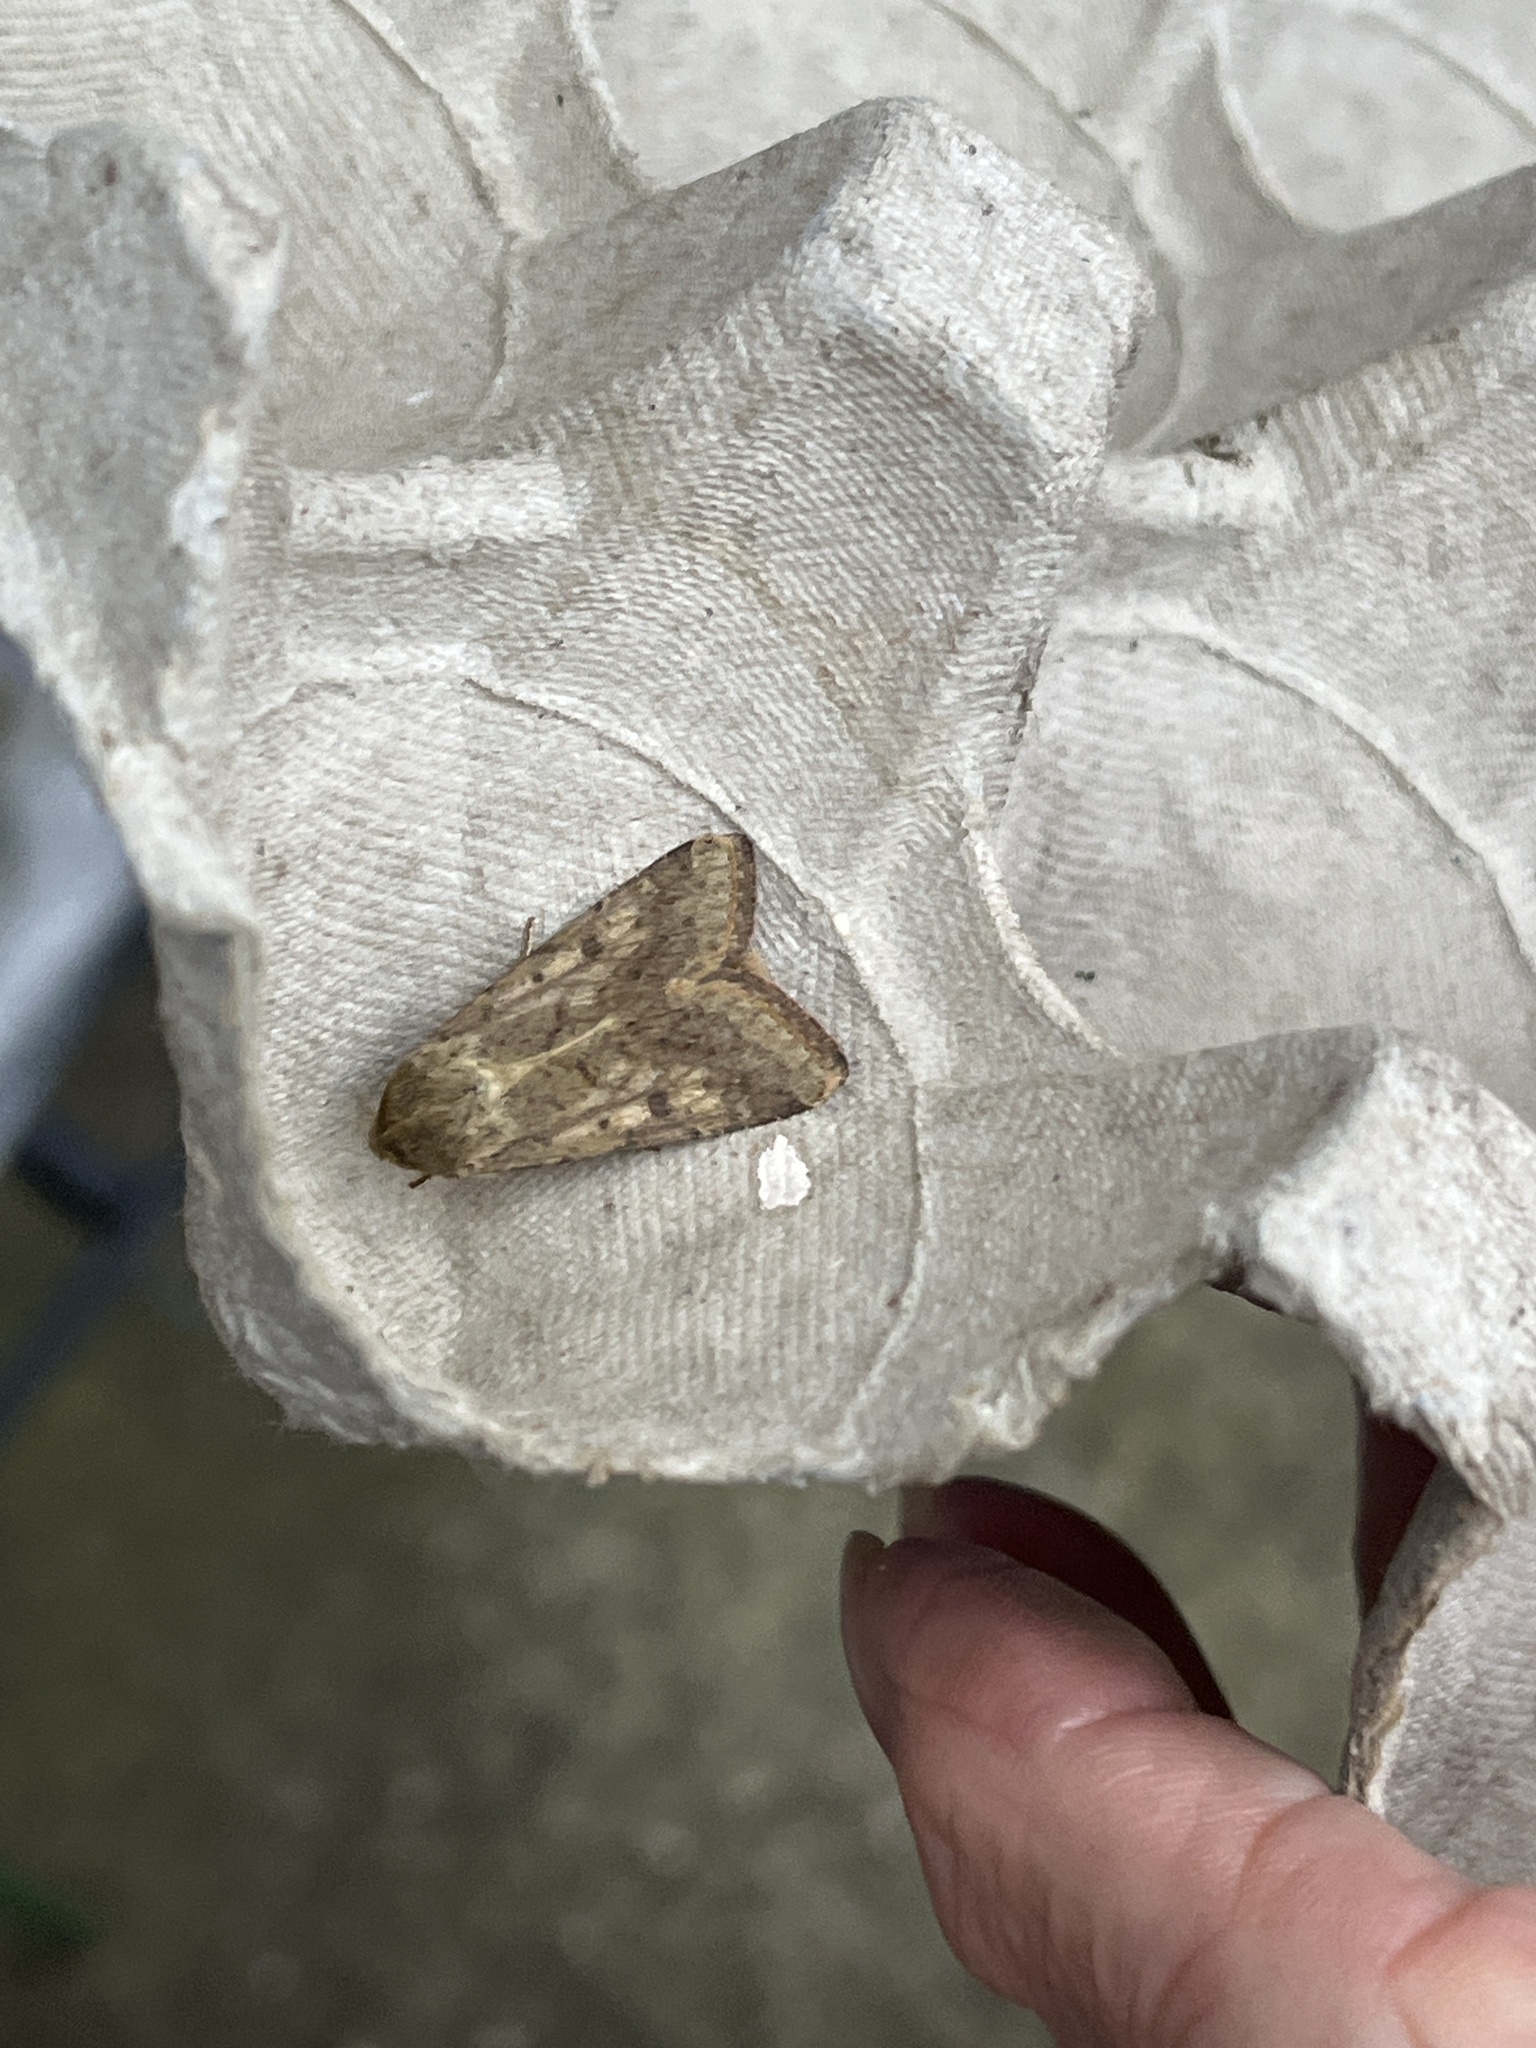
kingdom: Animalia
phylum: Arthropoda
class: Insecta
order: Lepidoptera
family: Noctuidae
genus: Helicoverpa
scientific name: Helicoverpa armigera
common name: Cotton bollworm
